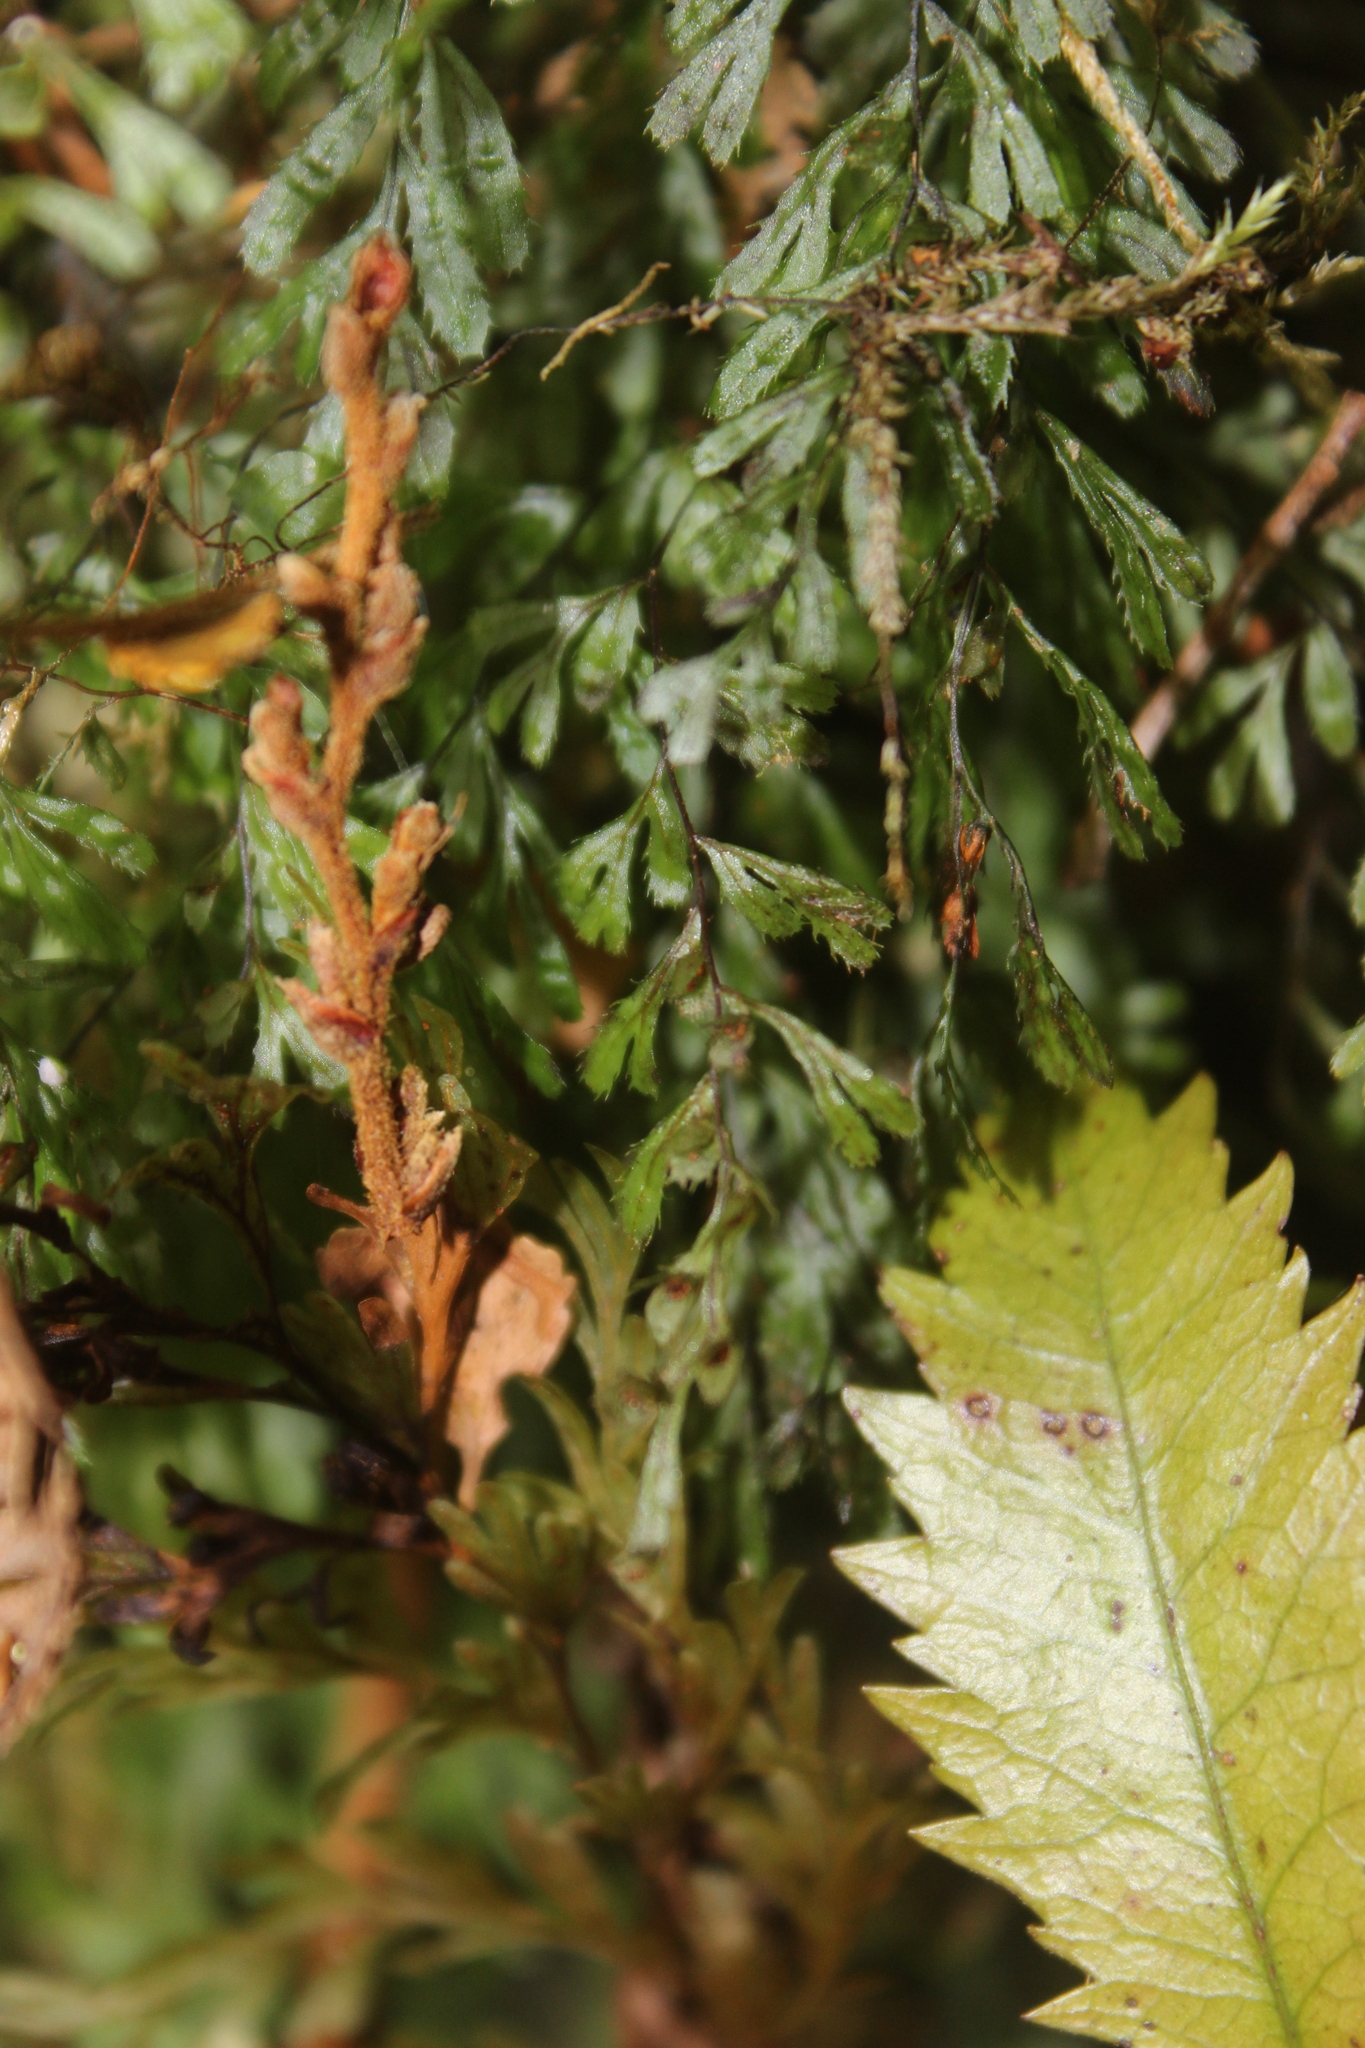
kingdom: Plantae
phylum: Tracheophyta
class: Polypodiopsida
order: Hymenophyllales
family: Hymenophyllaceae
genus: Hymenophyllum
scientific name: Hymenophyllum revolutum
